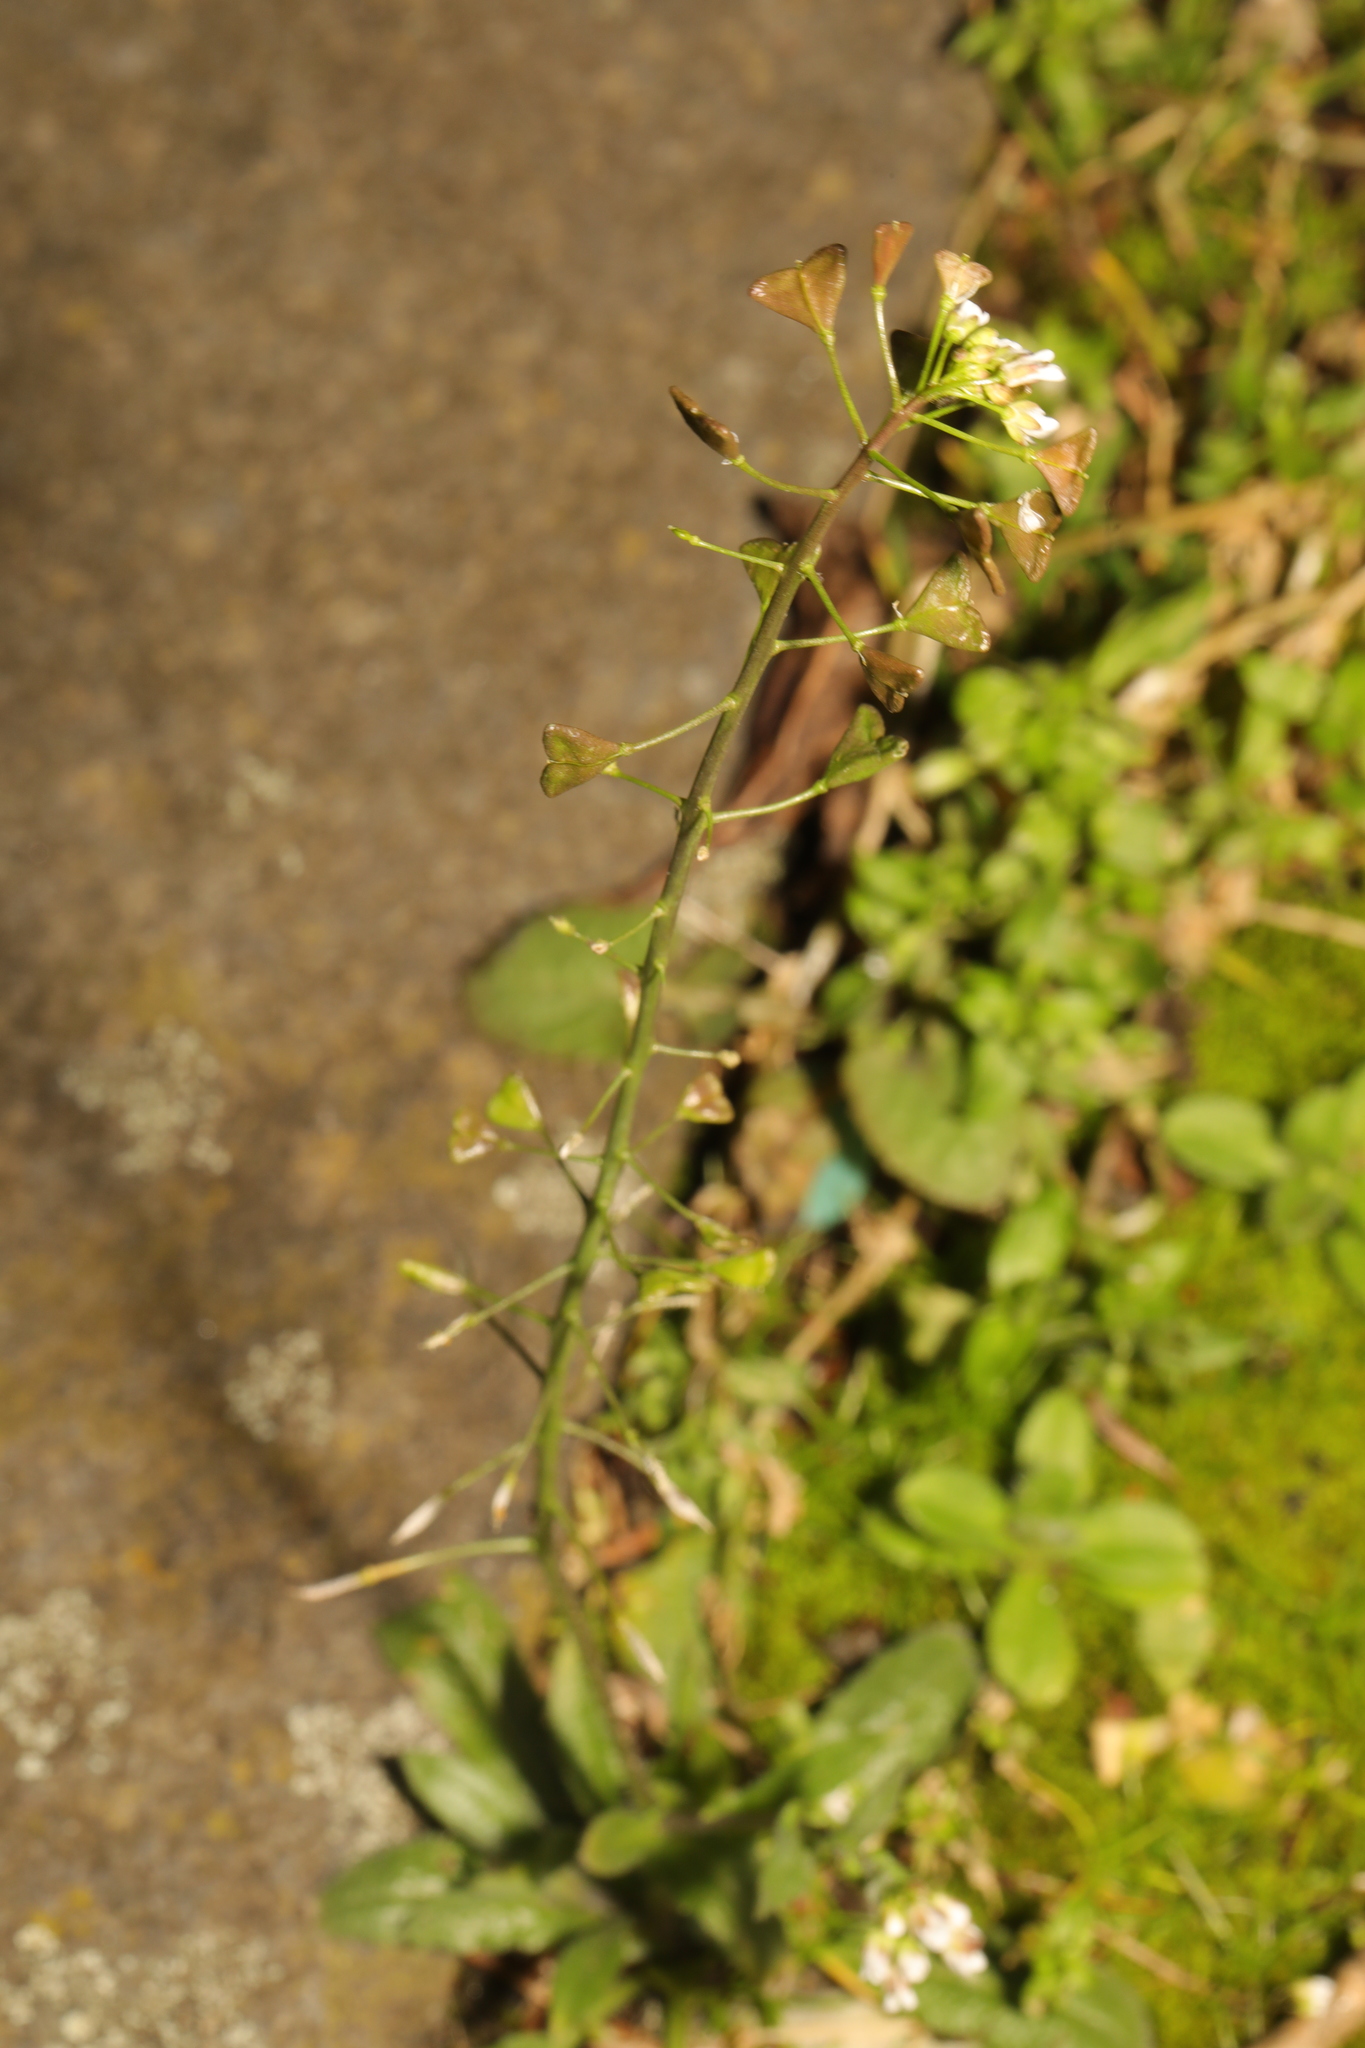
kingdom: Plantae
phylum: Tracheophyta
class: Magnoliopsida
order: Brassicales
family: Brassicaceae
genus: Capsella
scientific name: Capsella bursa-pastoris
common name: Shepherd's purse
